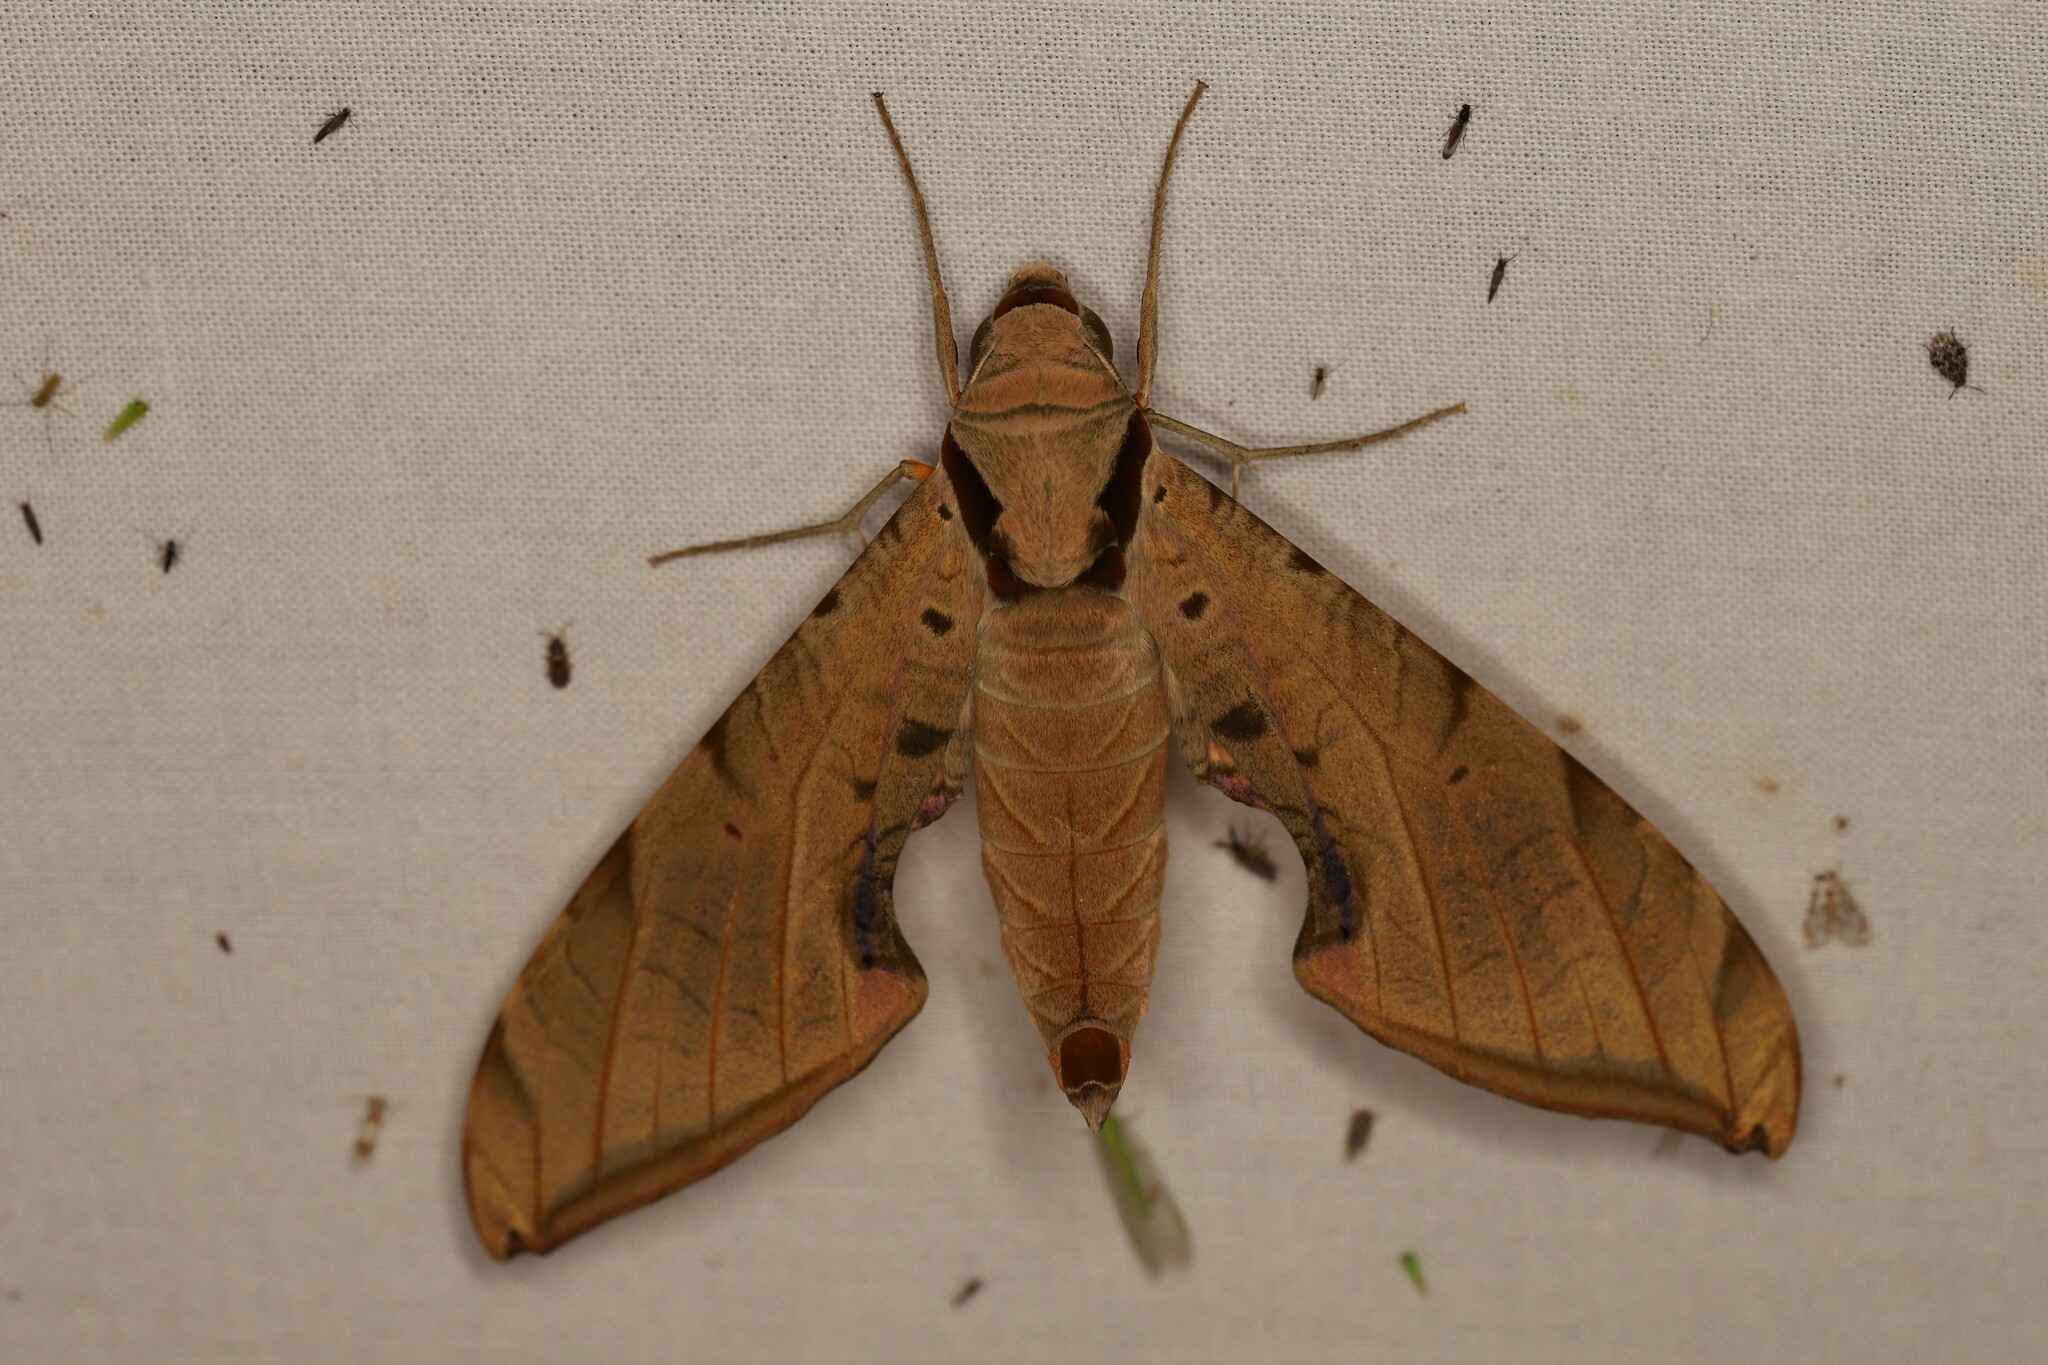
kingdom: Animalia
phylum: Arthropoda
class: Insecta
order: Lepidoptera
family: Sphingidae
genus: Protambulyx
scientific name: Protambulyx strigilis
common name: Streaked sphinx
